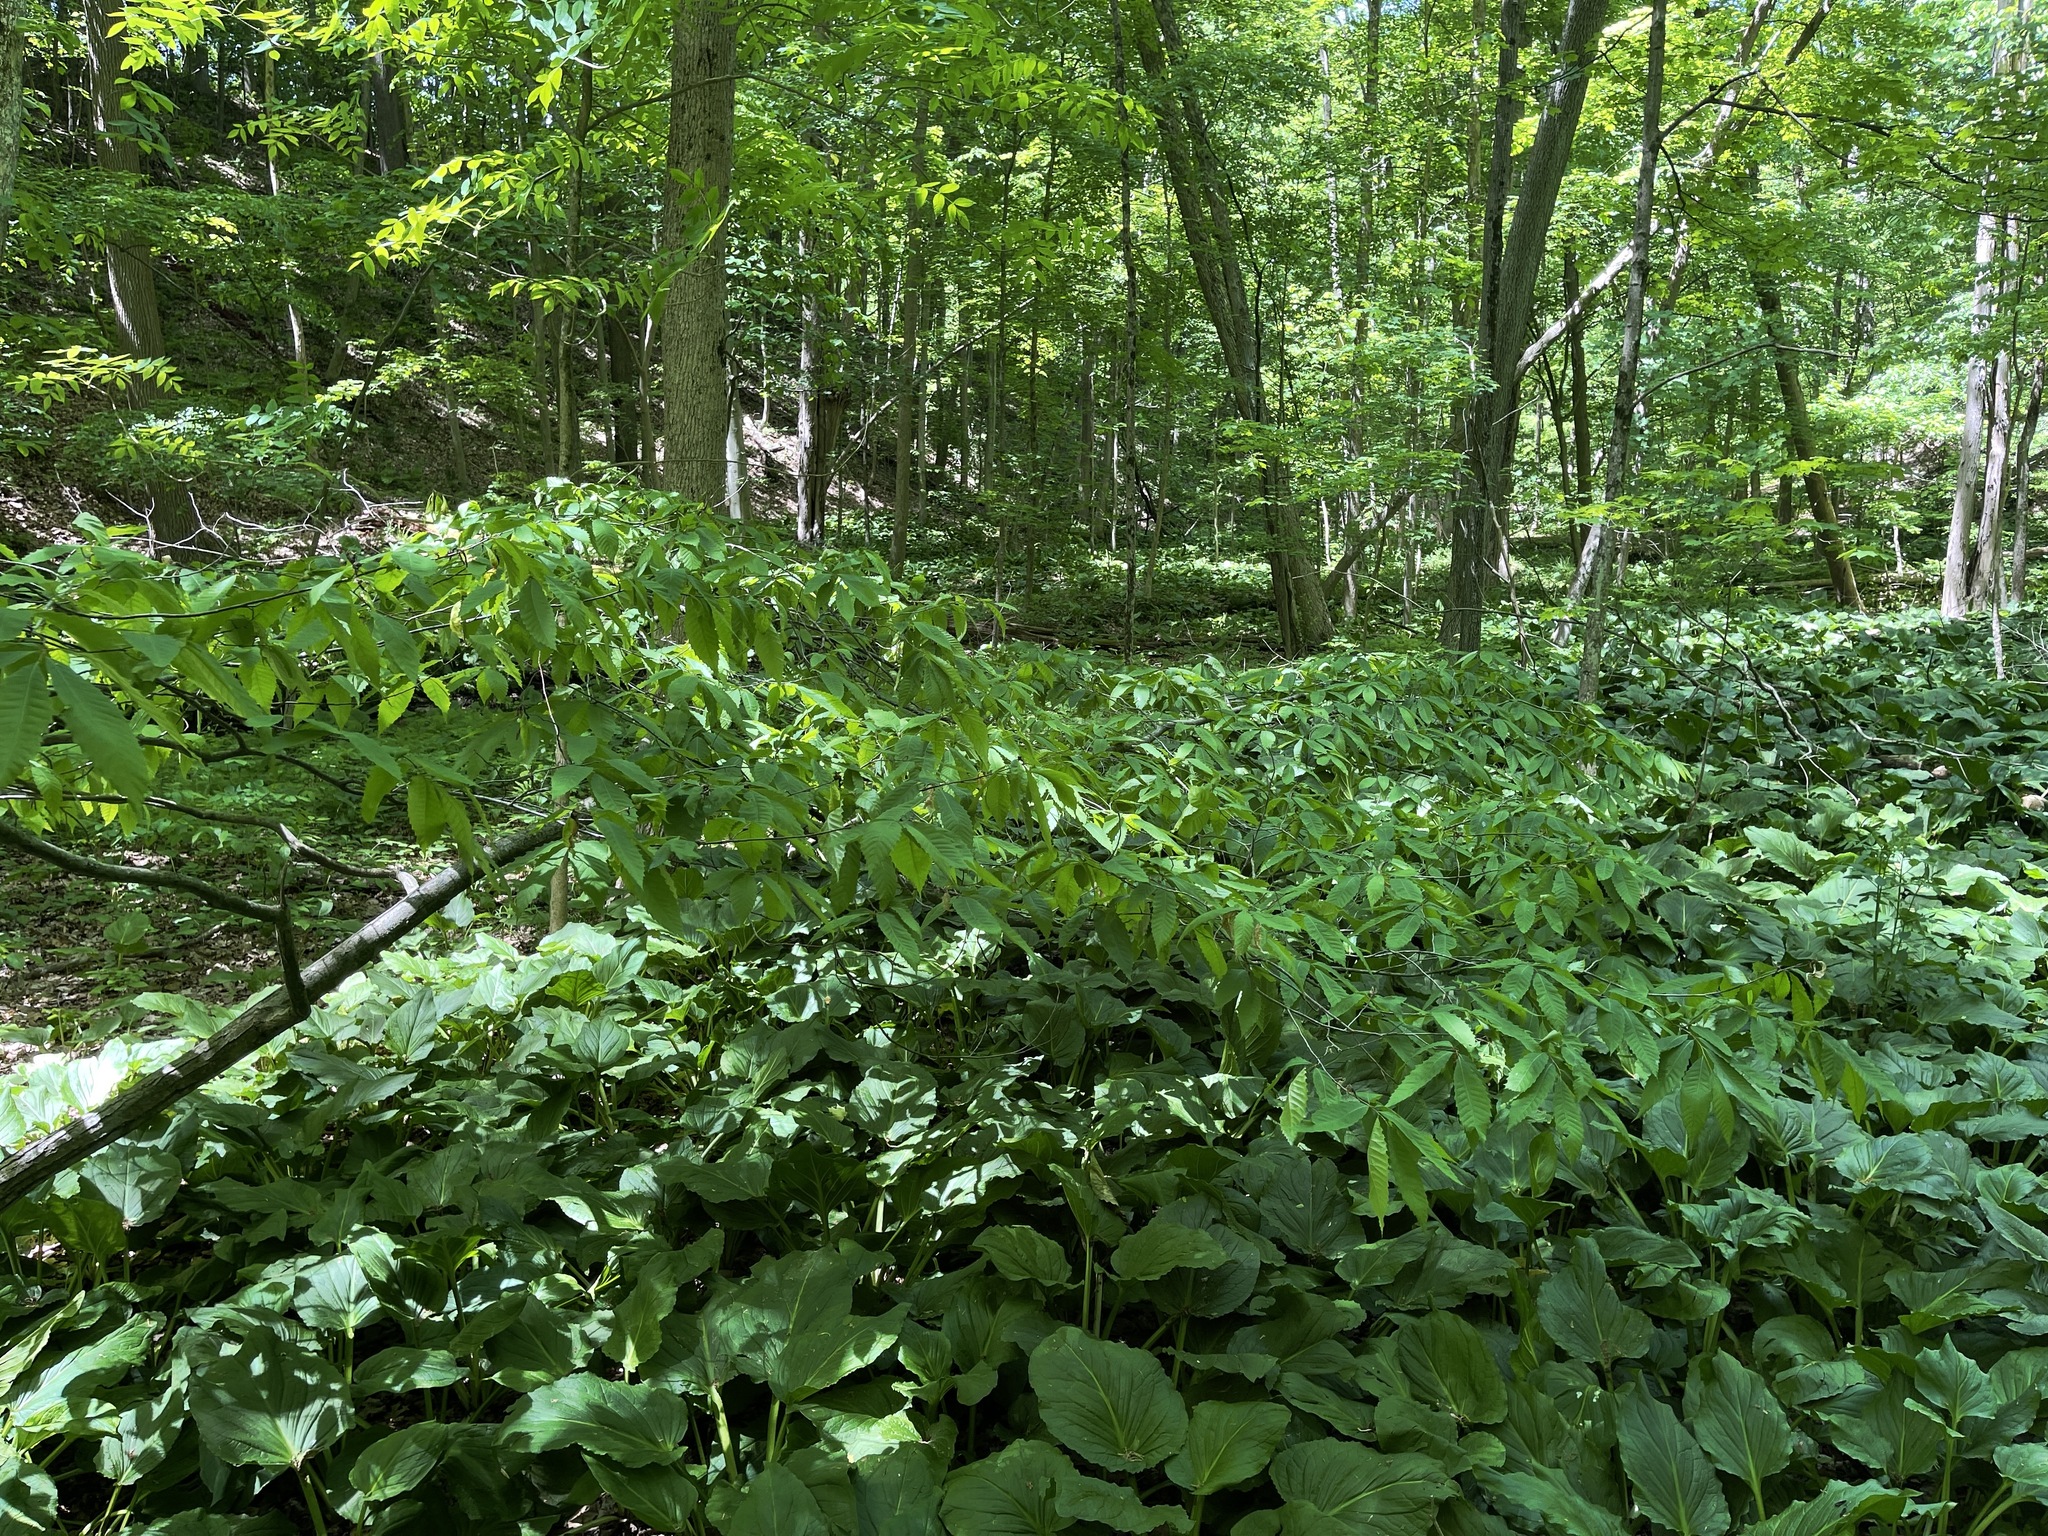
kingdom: Plantae
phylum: Tracheophyta
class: Magnoliopsida
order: Fagales
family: Fagaceae
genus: Castanea
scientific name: Castanea dentata
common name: American chestnut
